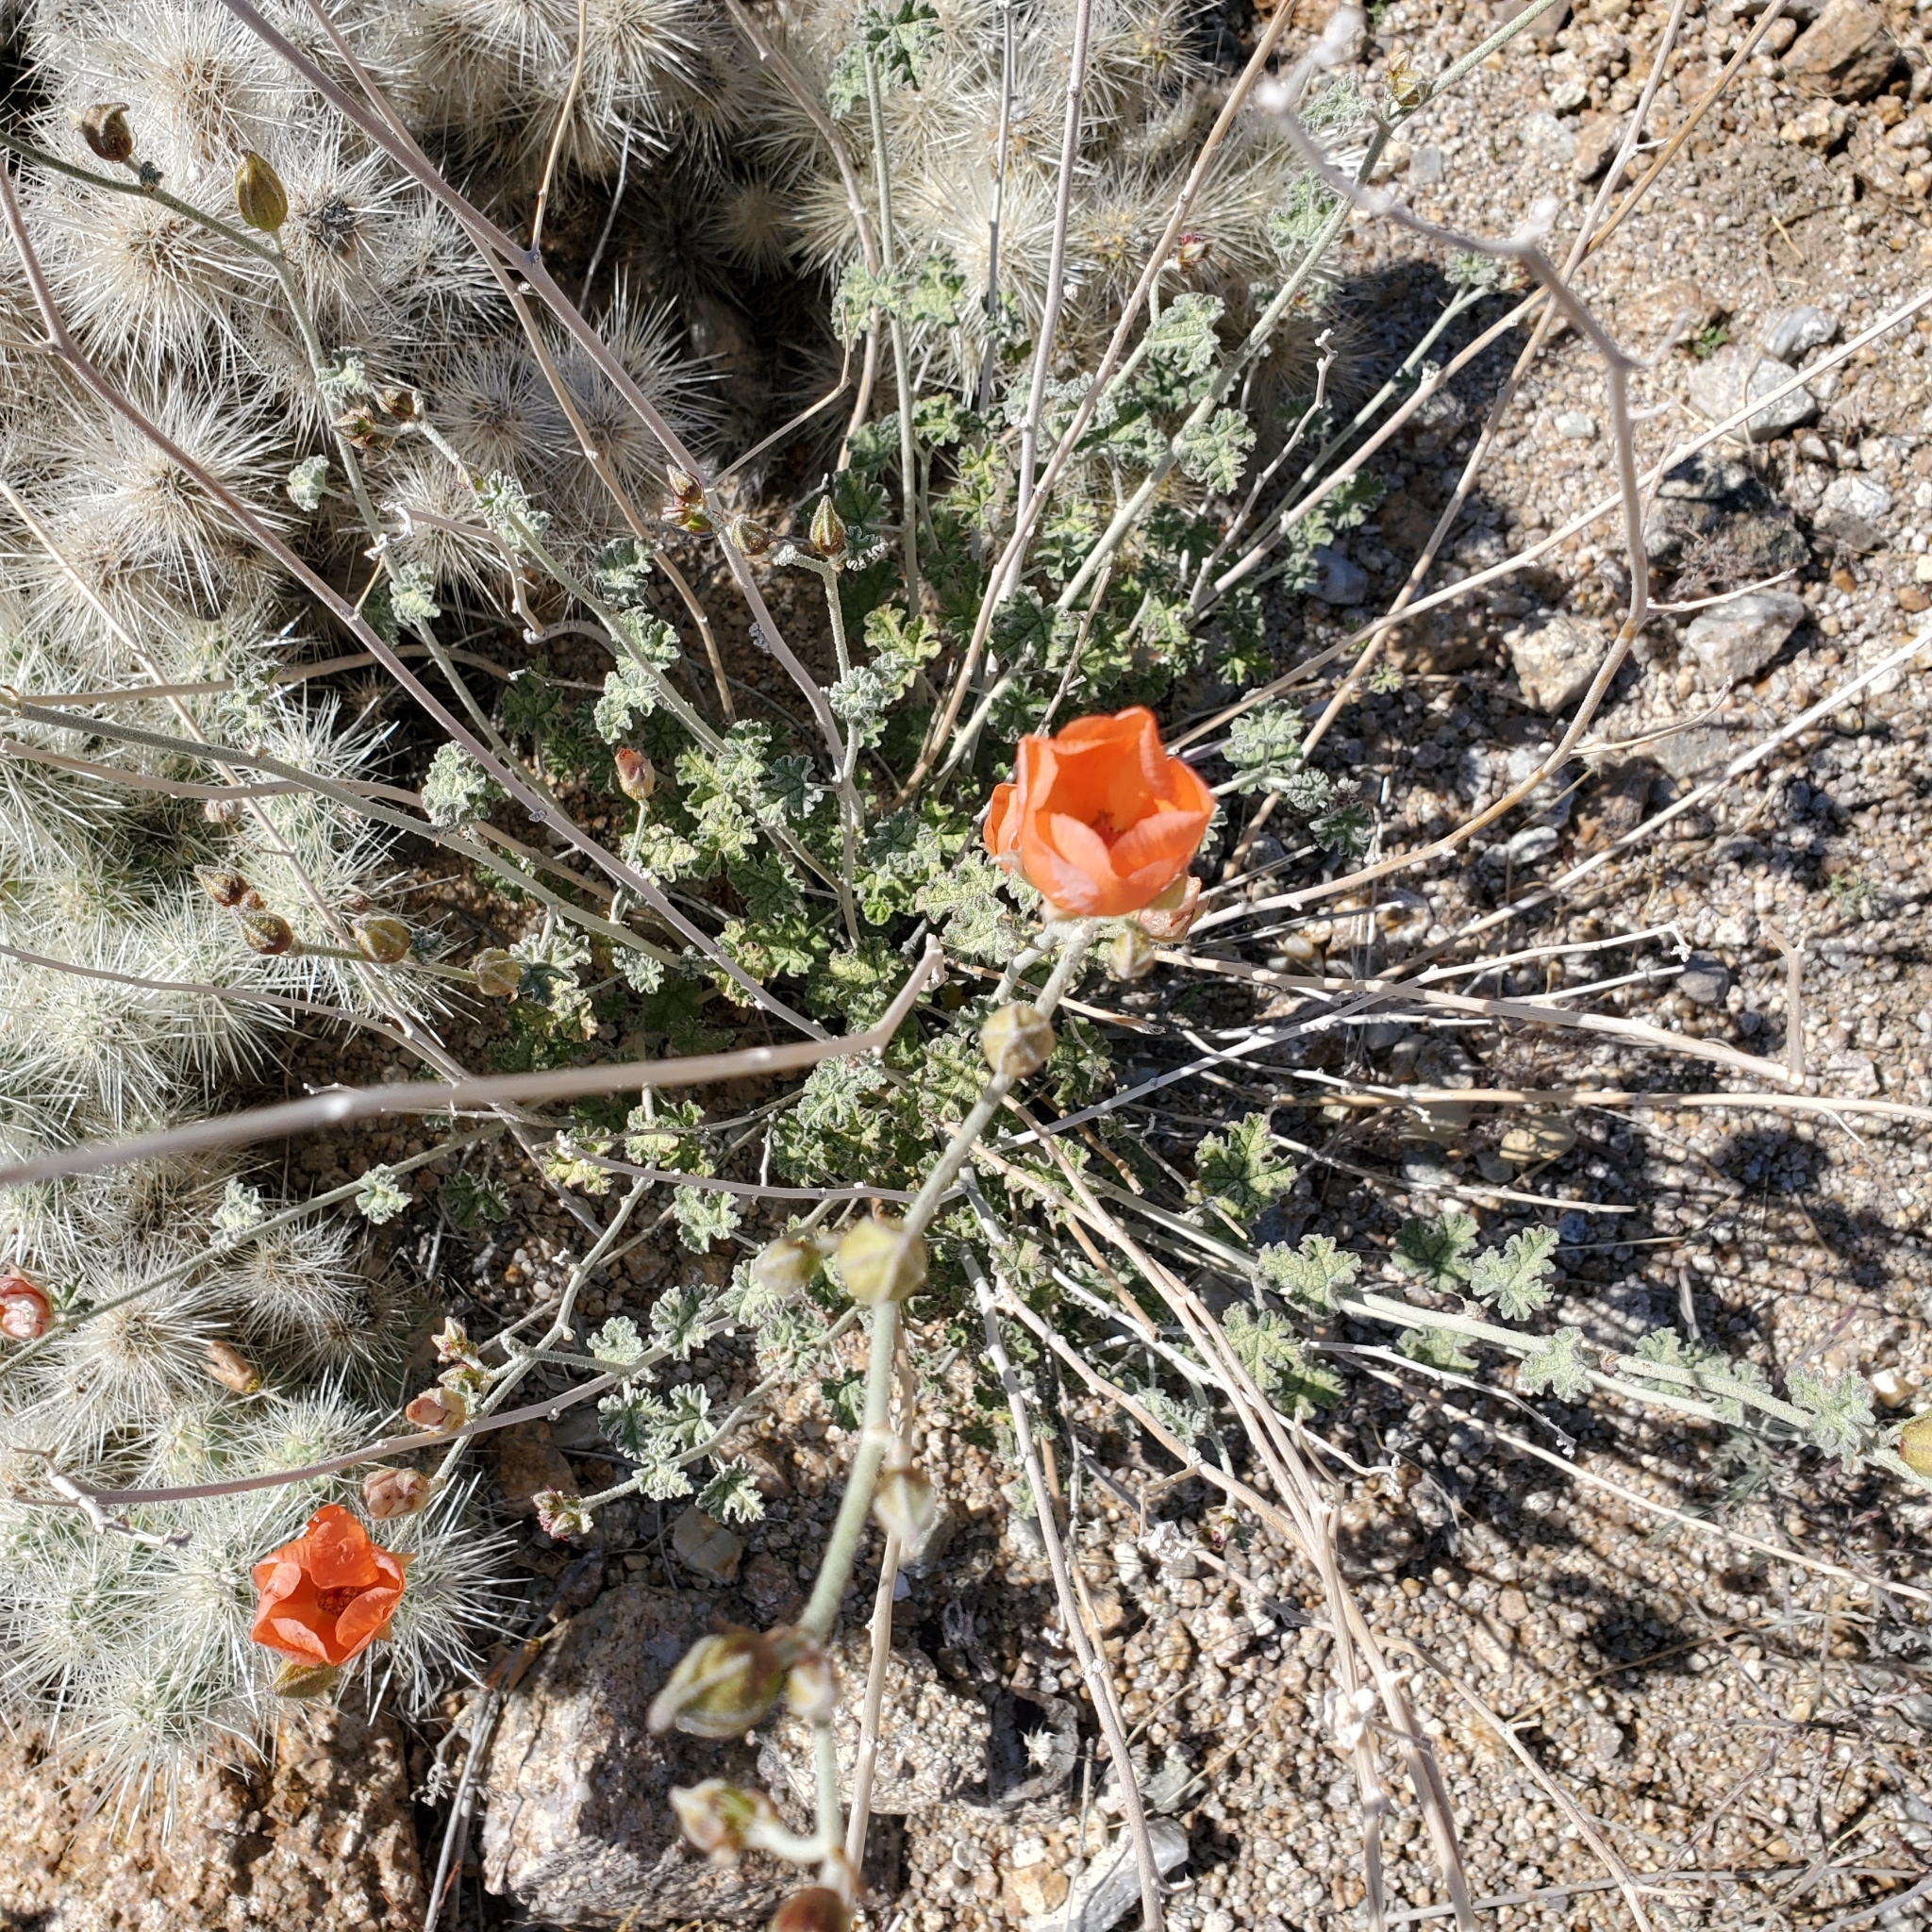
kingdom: Plantae
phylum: Tracheophyta
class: Magnoliopsida
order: Malvales
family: Malvaceae
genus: Sphaeralcea
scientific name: Sphaeralcea ambigua
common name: Apricot globe-mallow
